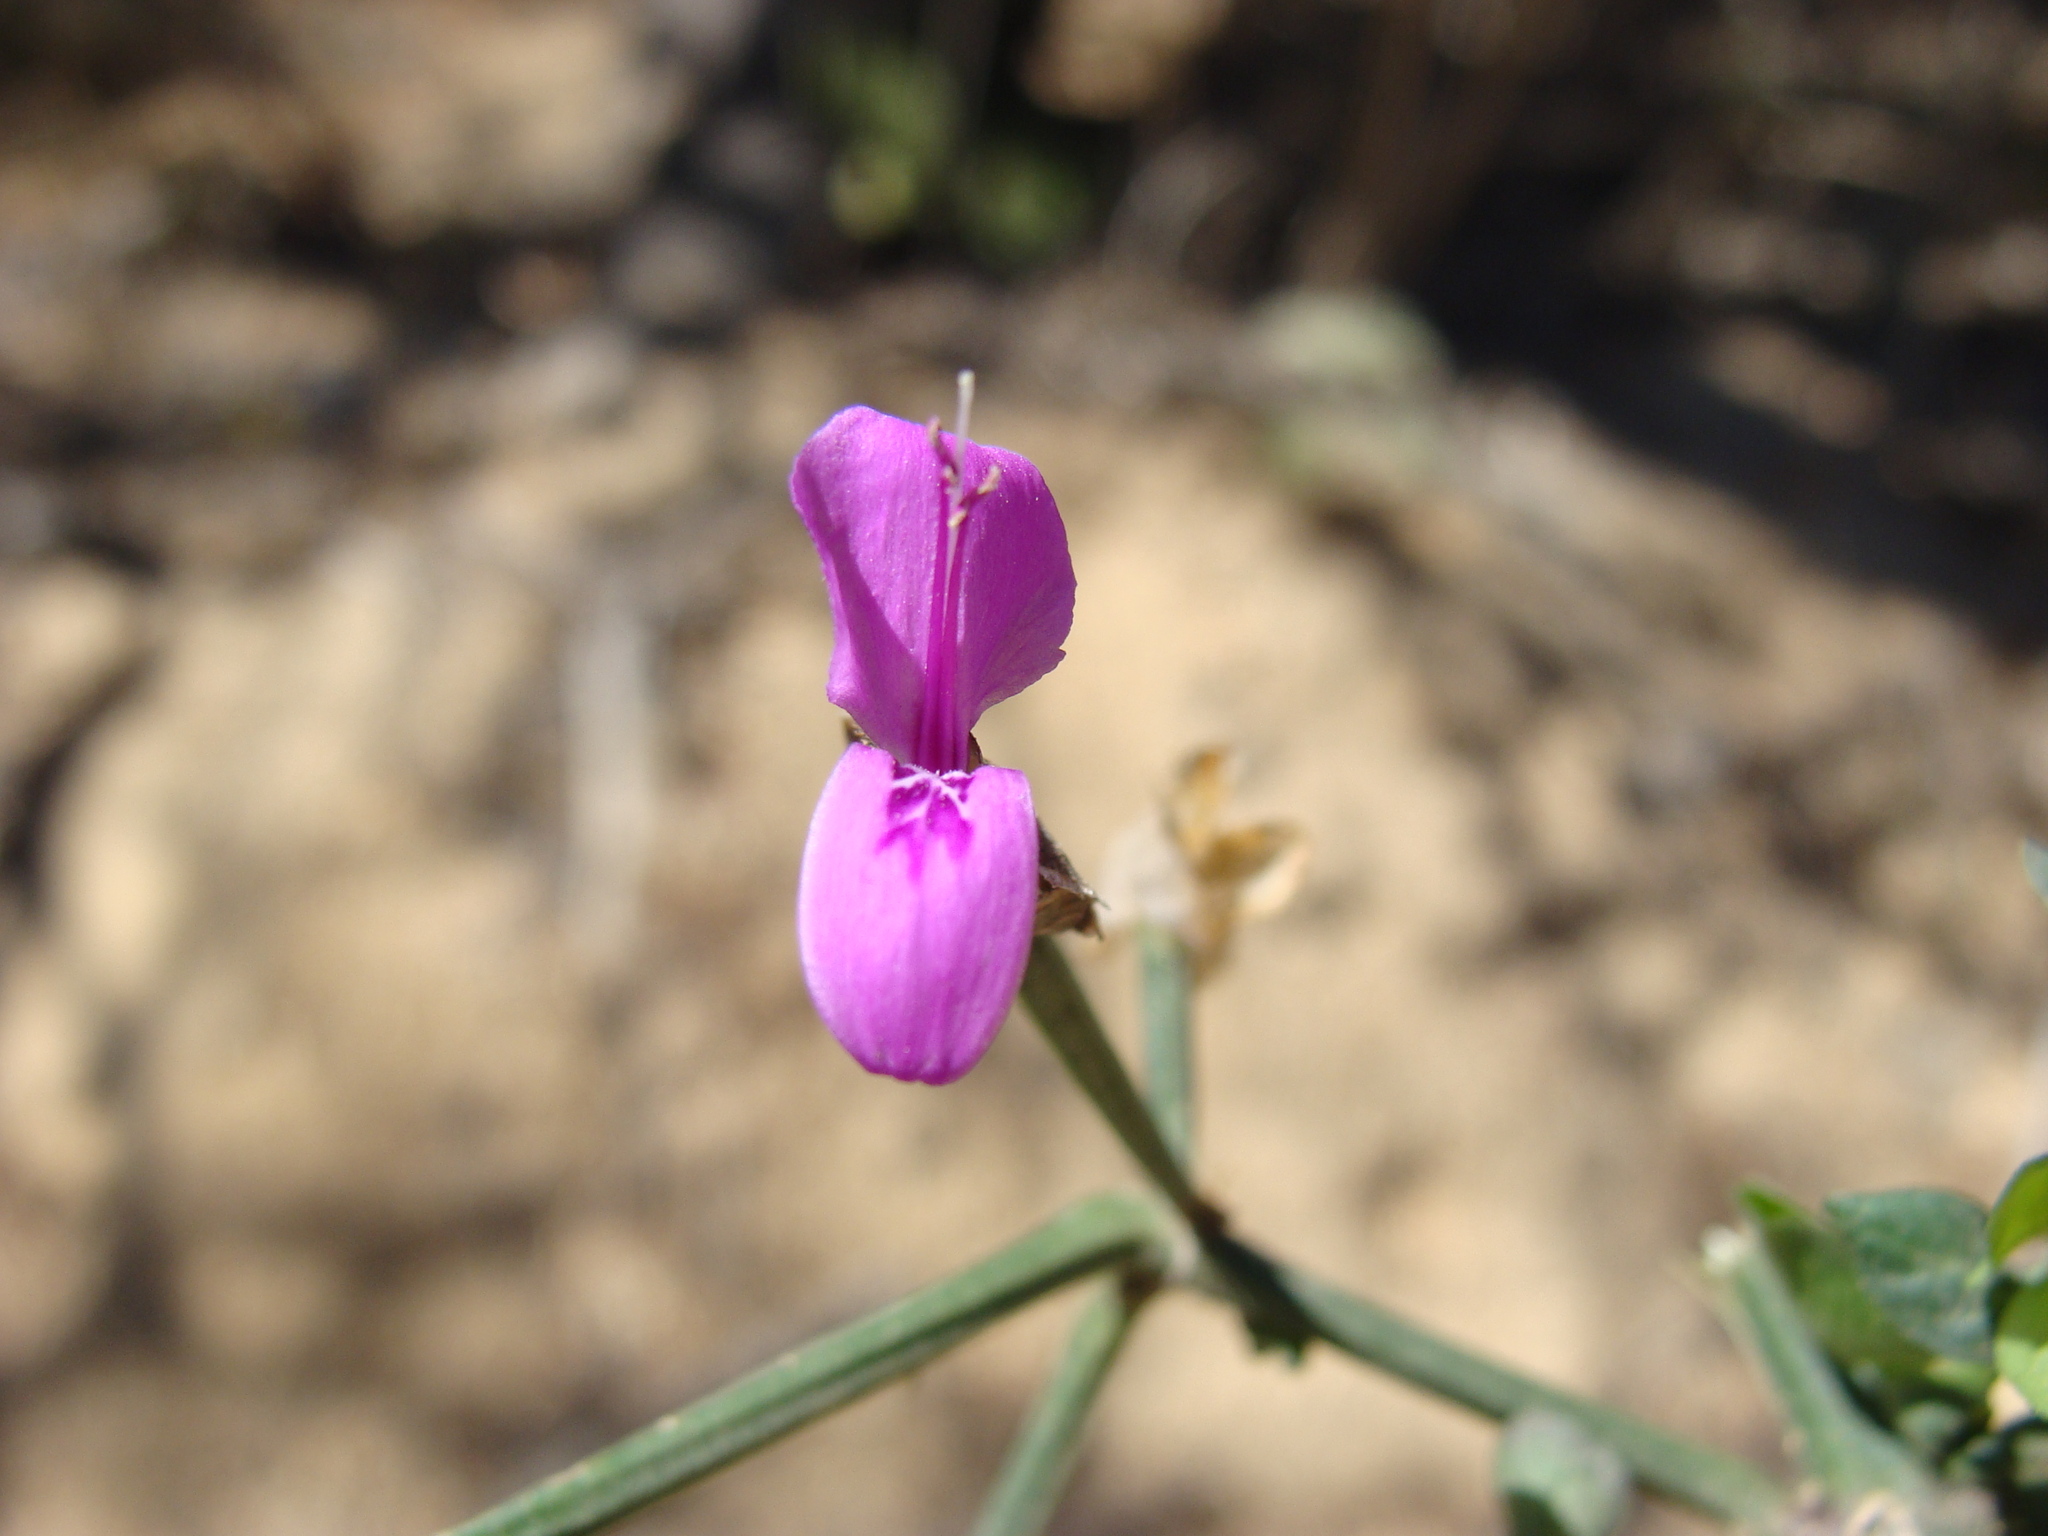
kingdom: Plantae
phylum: Tracheophyta
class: Magnoliopsida
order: Lamiales
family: Acanthaceae
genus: Dicliptera
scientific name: Dicliptera resupinata
